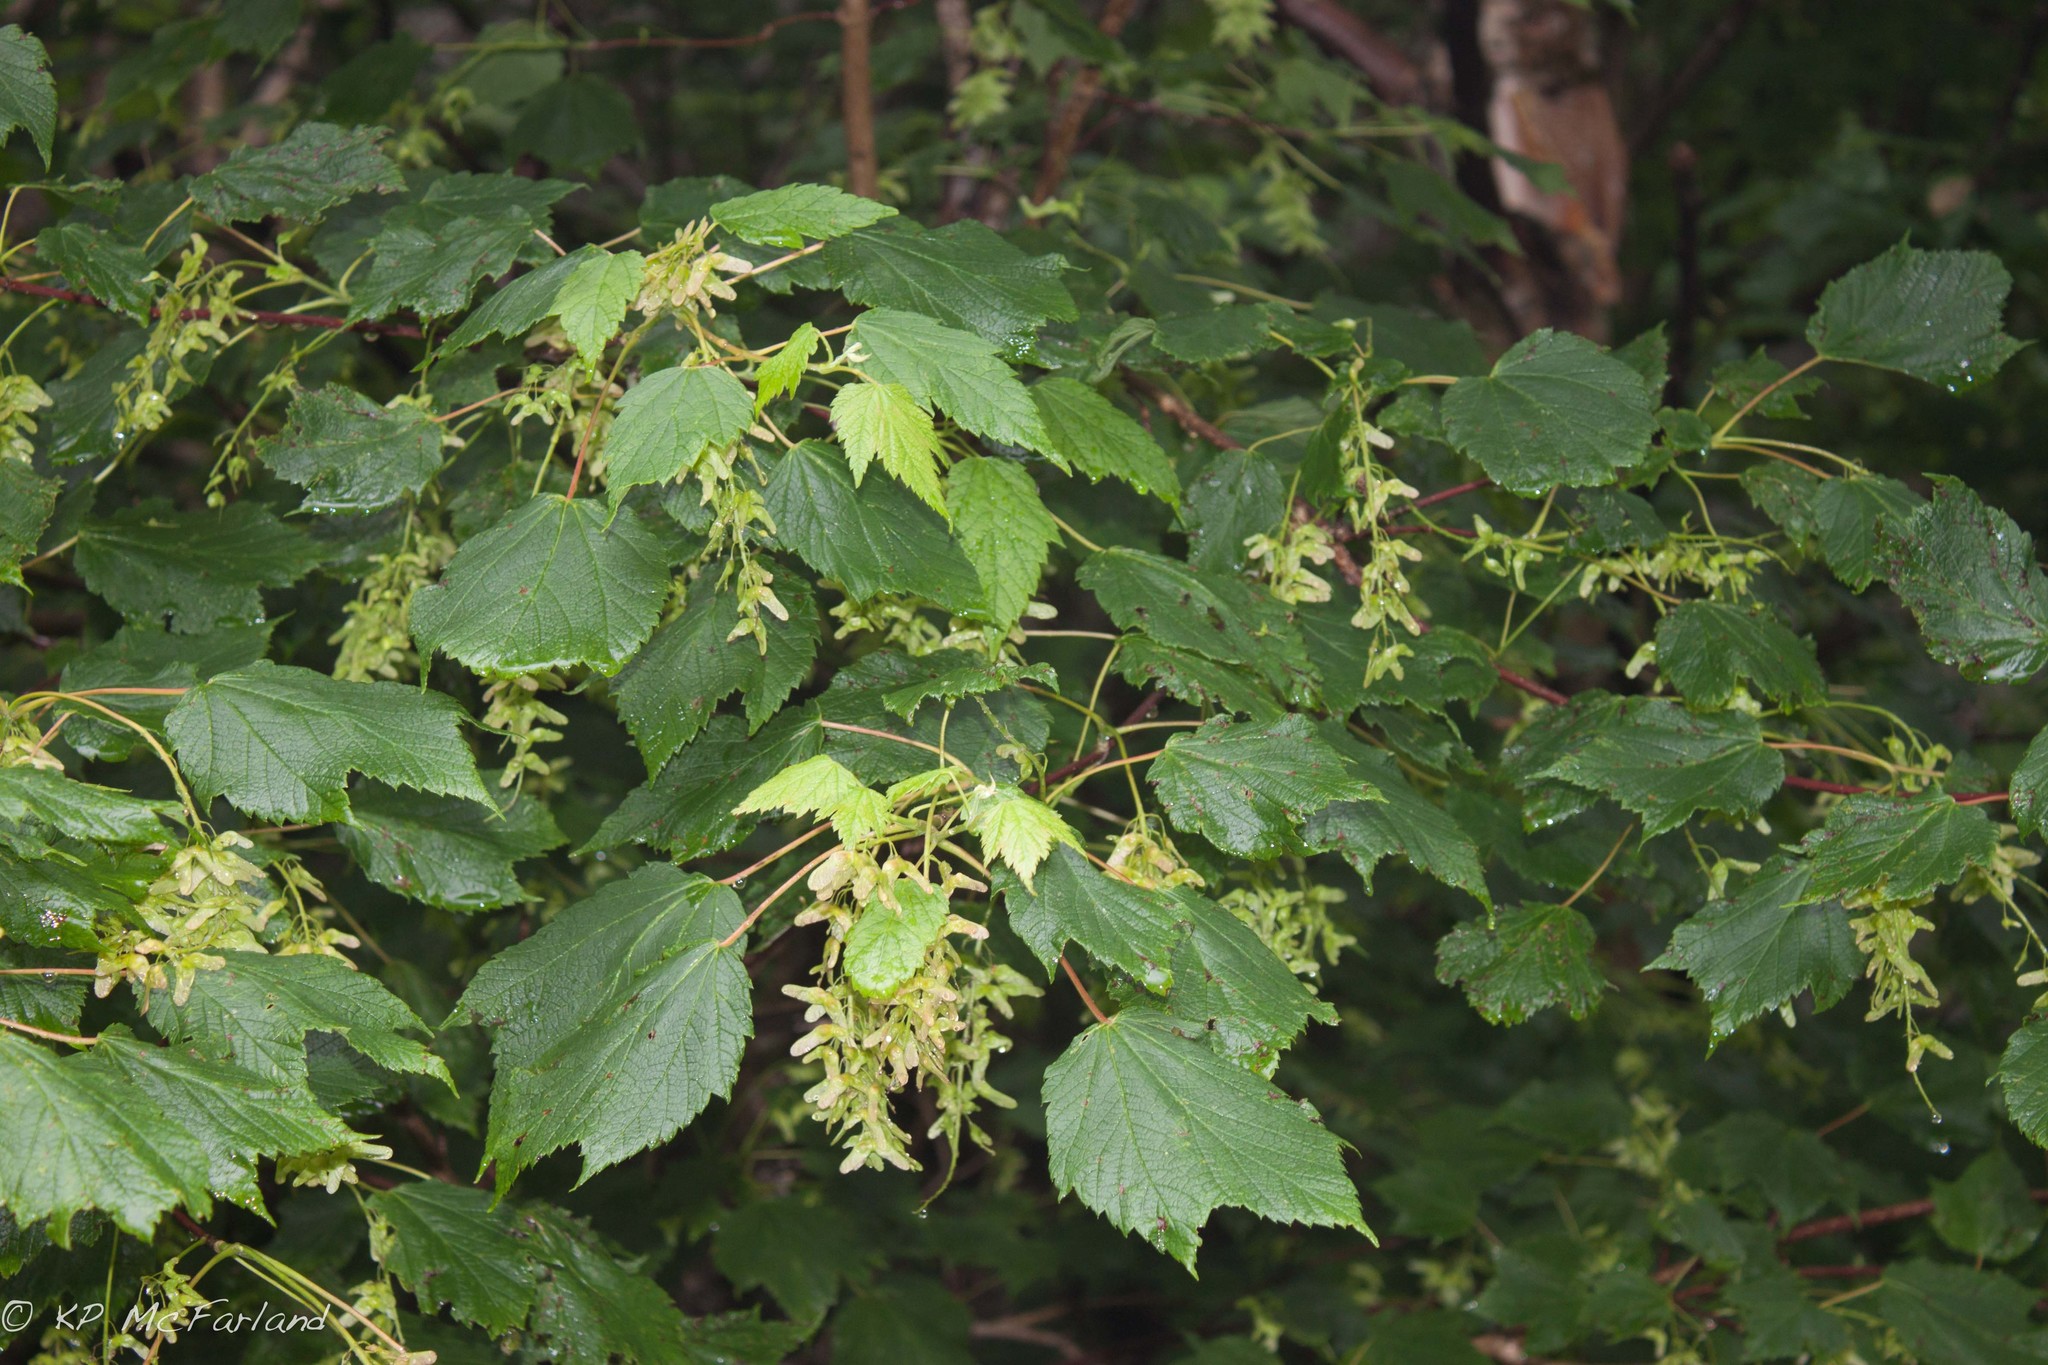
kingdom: Plantae
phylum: Tracheophyta
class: Magnoliopsida
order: Sapindales
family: Sapindaceae
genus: Acer
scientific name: Acer spicatum
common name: Mountain maple
